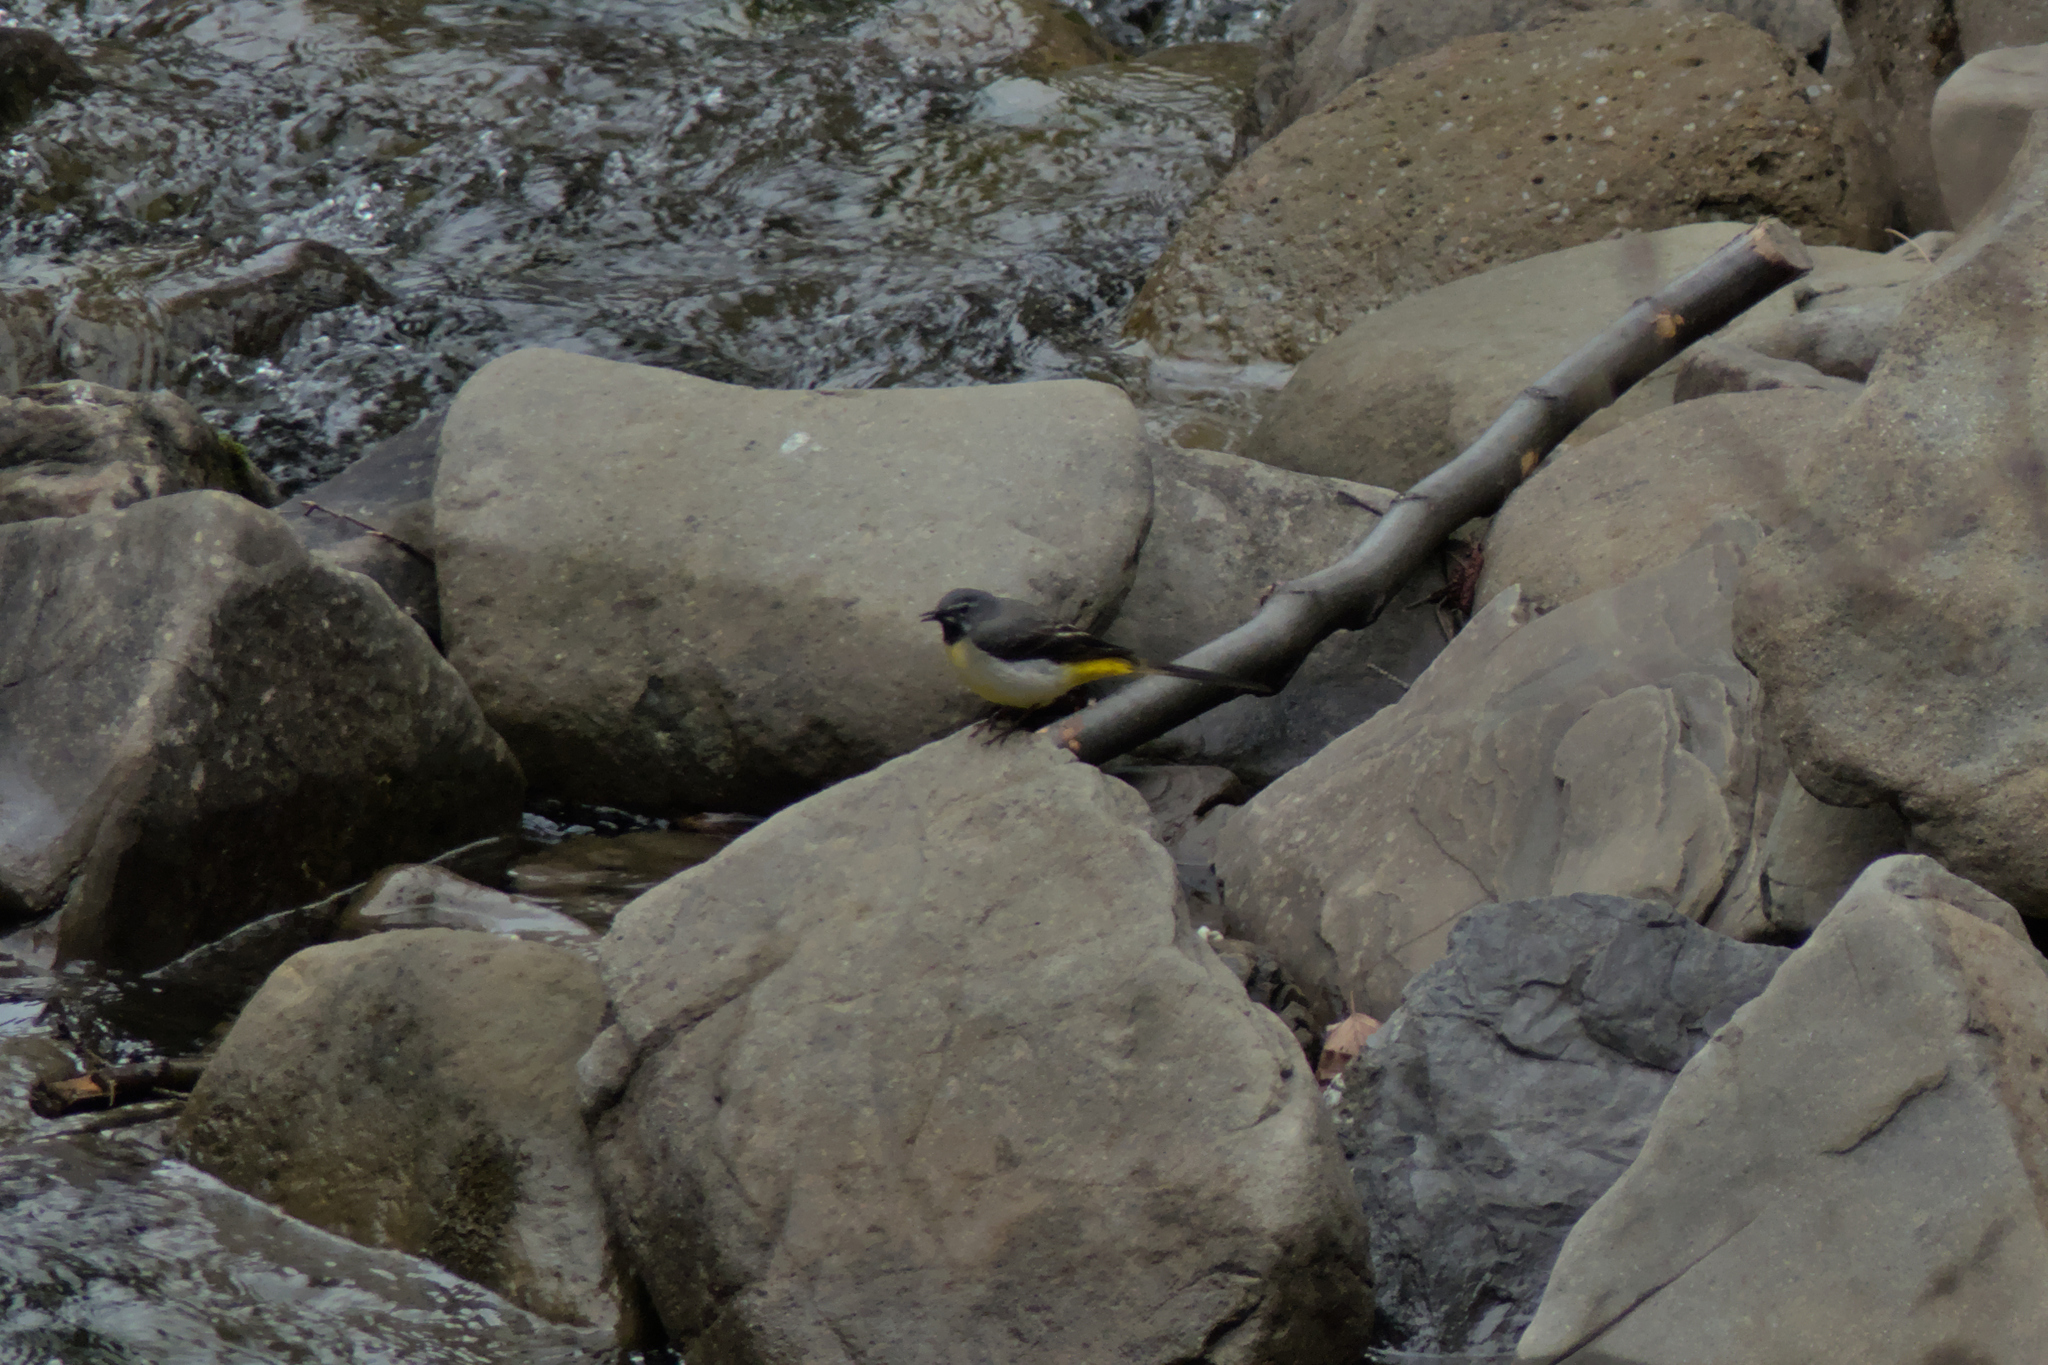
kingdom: Animalia
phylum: Chordata
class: Aves
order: Passeriformes
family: Motacillidae
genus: Motacilla
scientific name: Motacilla cinerea
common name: Grey wagtail
